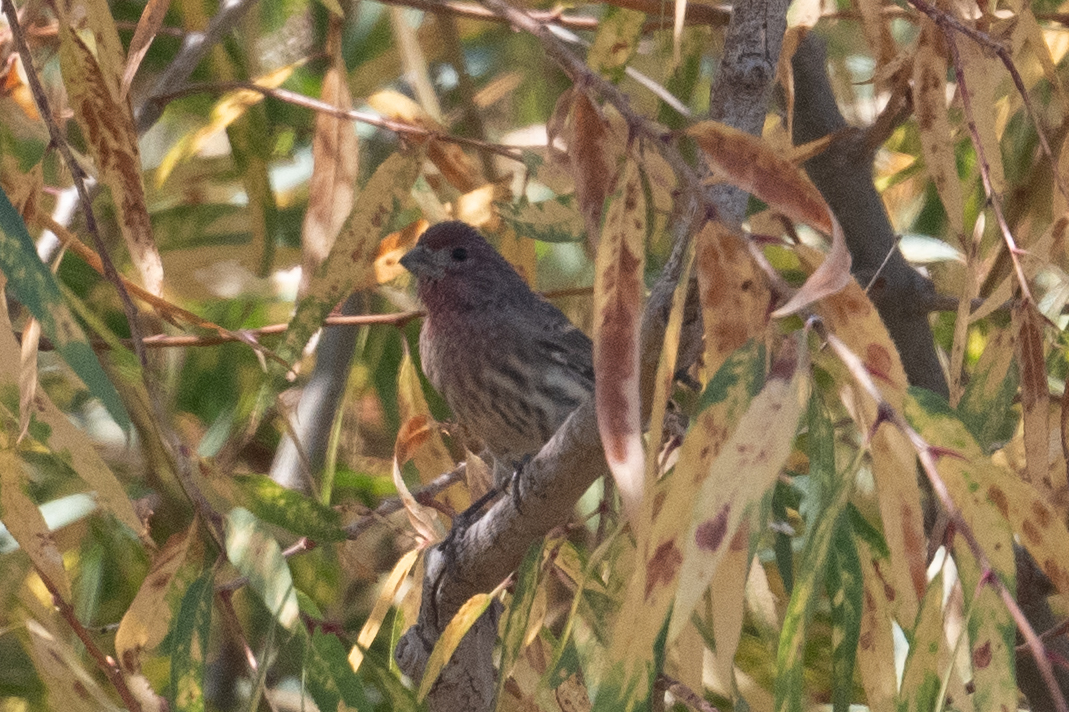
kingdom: Animalia
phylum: Chordata
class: Aves
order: Passeriformes
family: Fringillidae
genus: Haemorhous
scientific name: Haemorhous mexicanus
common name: House finch
